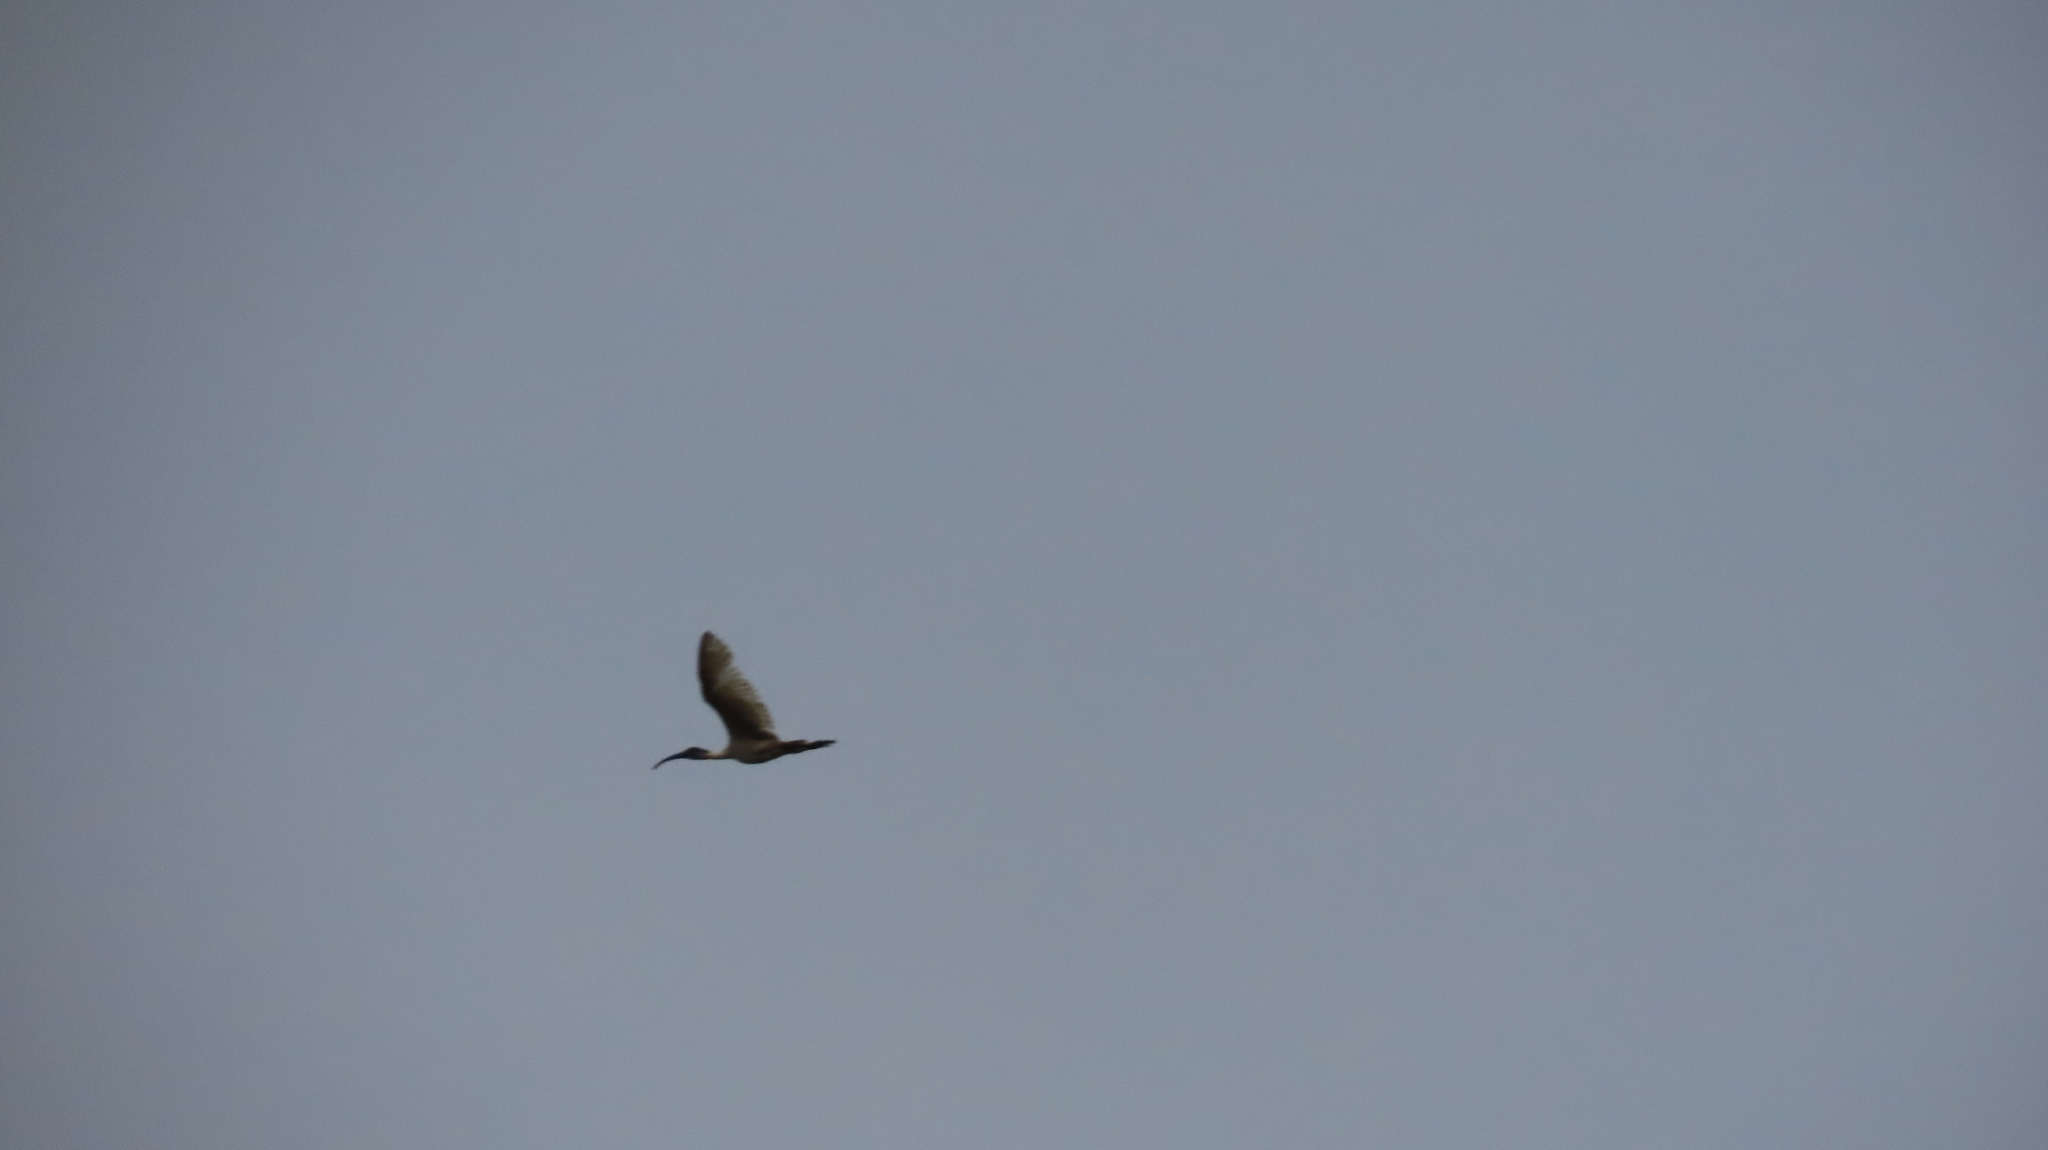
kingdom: Animalia
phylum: Chordata
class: Aves
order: Pelecaniformes
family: Threskiornithidae
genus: Threskiornis
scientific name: Threskiornis melanocephalus
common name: Black-headed ibis
